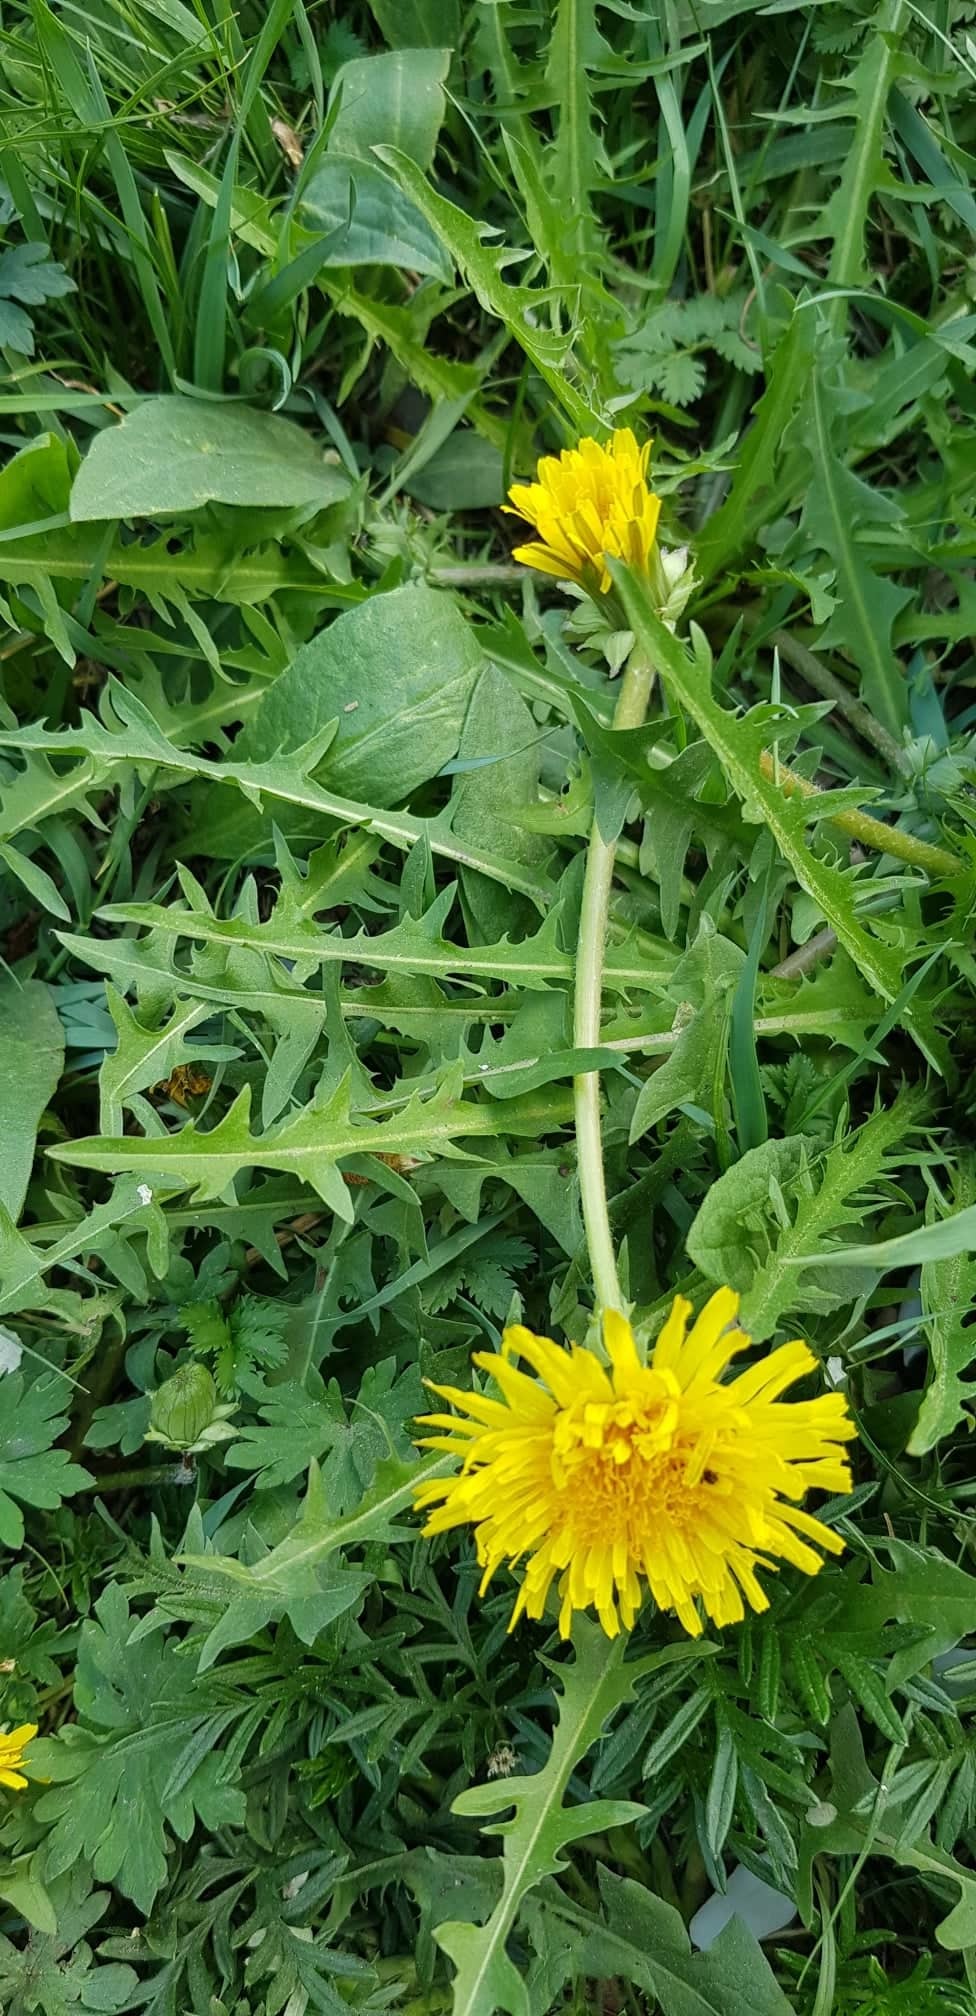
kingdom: Plantae
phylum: Tracheophyta
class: Magnoliopsida
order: Asterales
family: Asteraceae
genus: Taraxacum
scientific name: Taraxacum officinale
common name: Common dandelion
